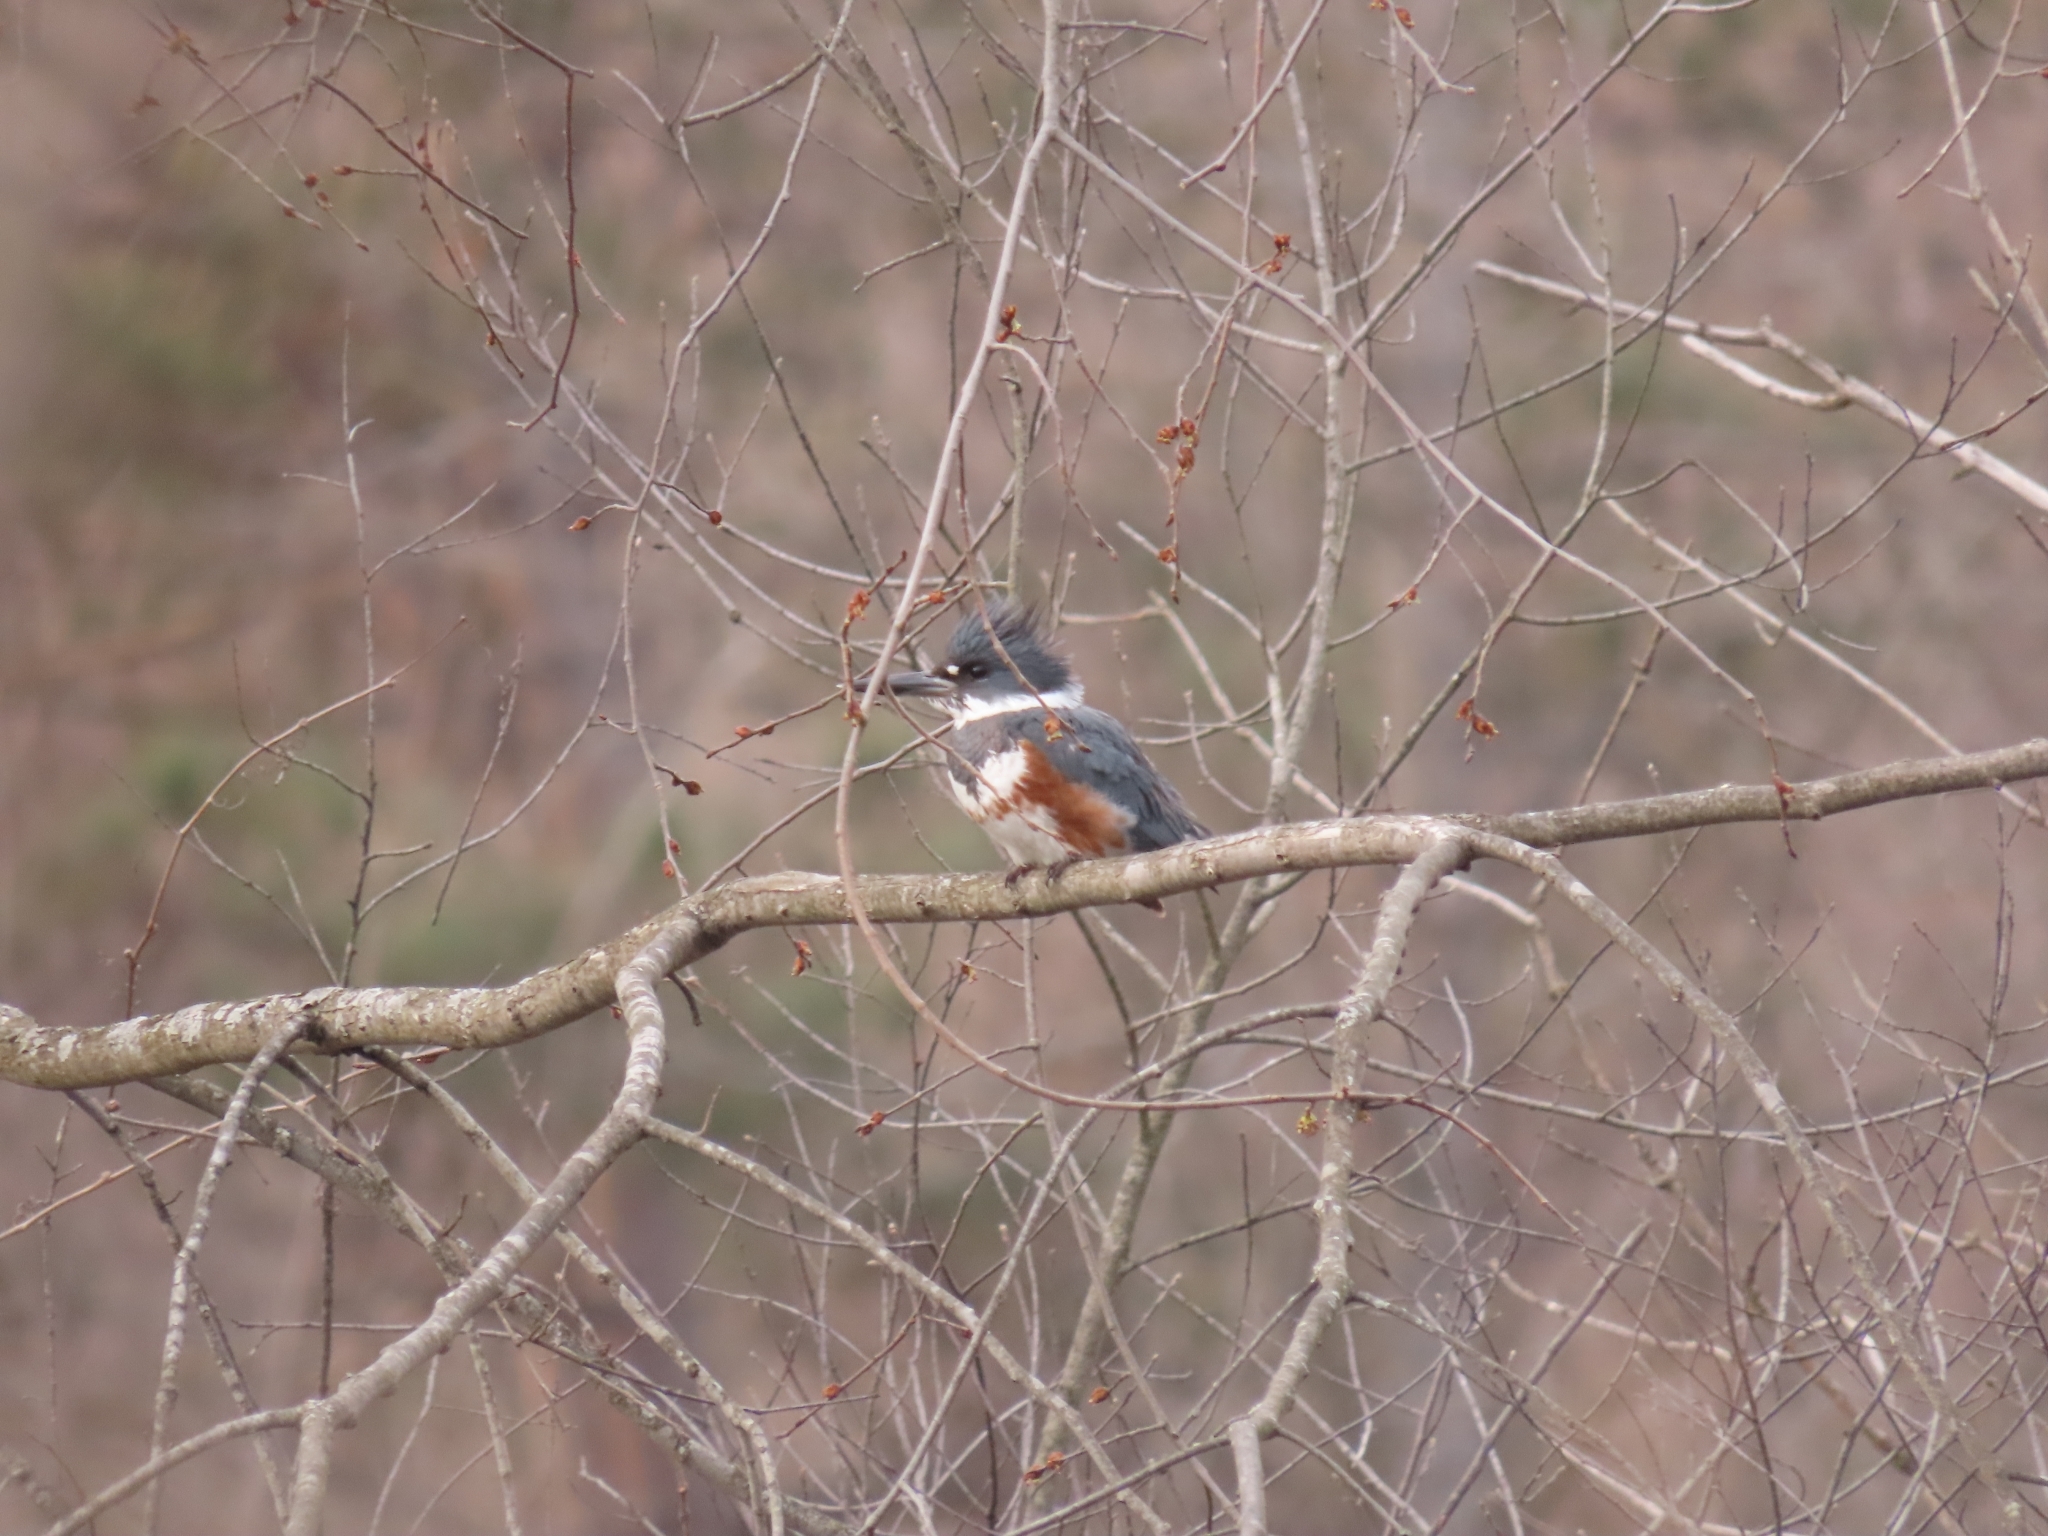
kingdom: Animalia
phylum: Chordata
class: Aves
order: Coraciiformes
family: Alcedinidae
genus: Megaceryle
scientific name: Megaceryle alcyon
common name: Belted kingfisher
